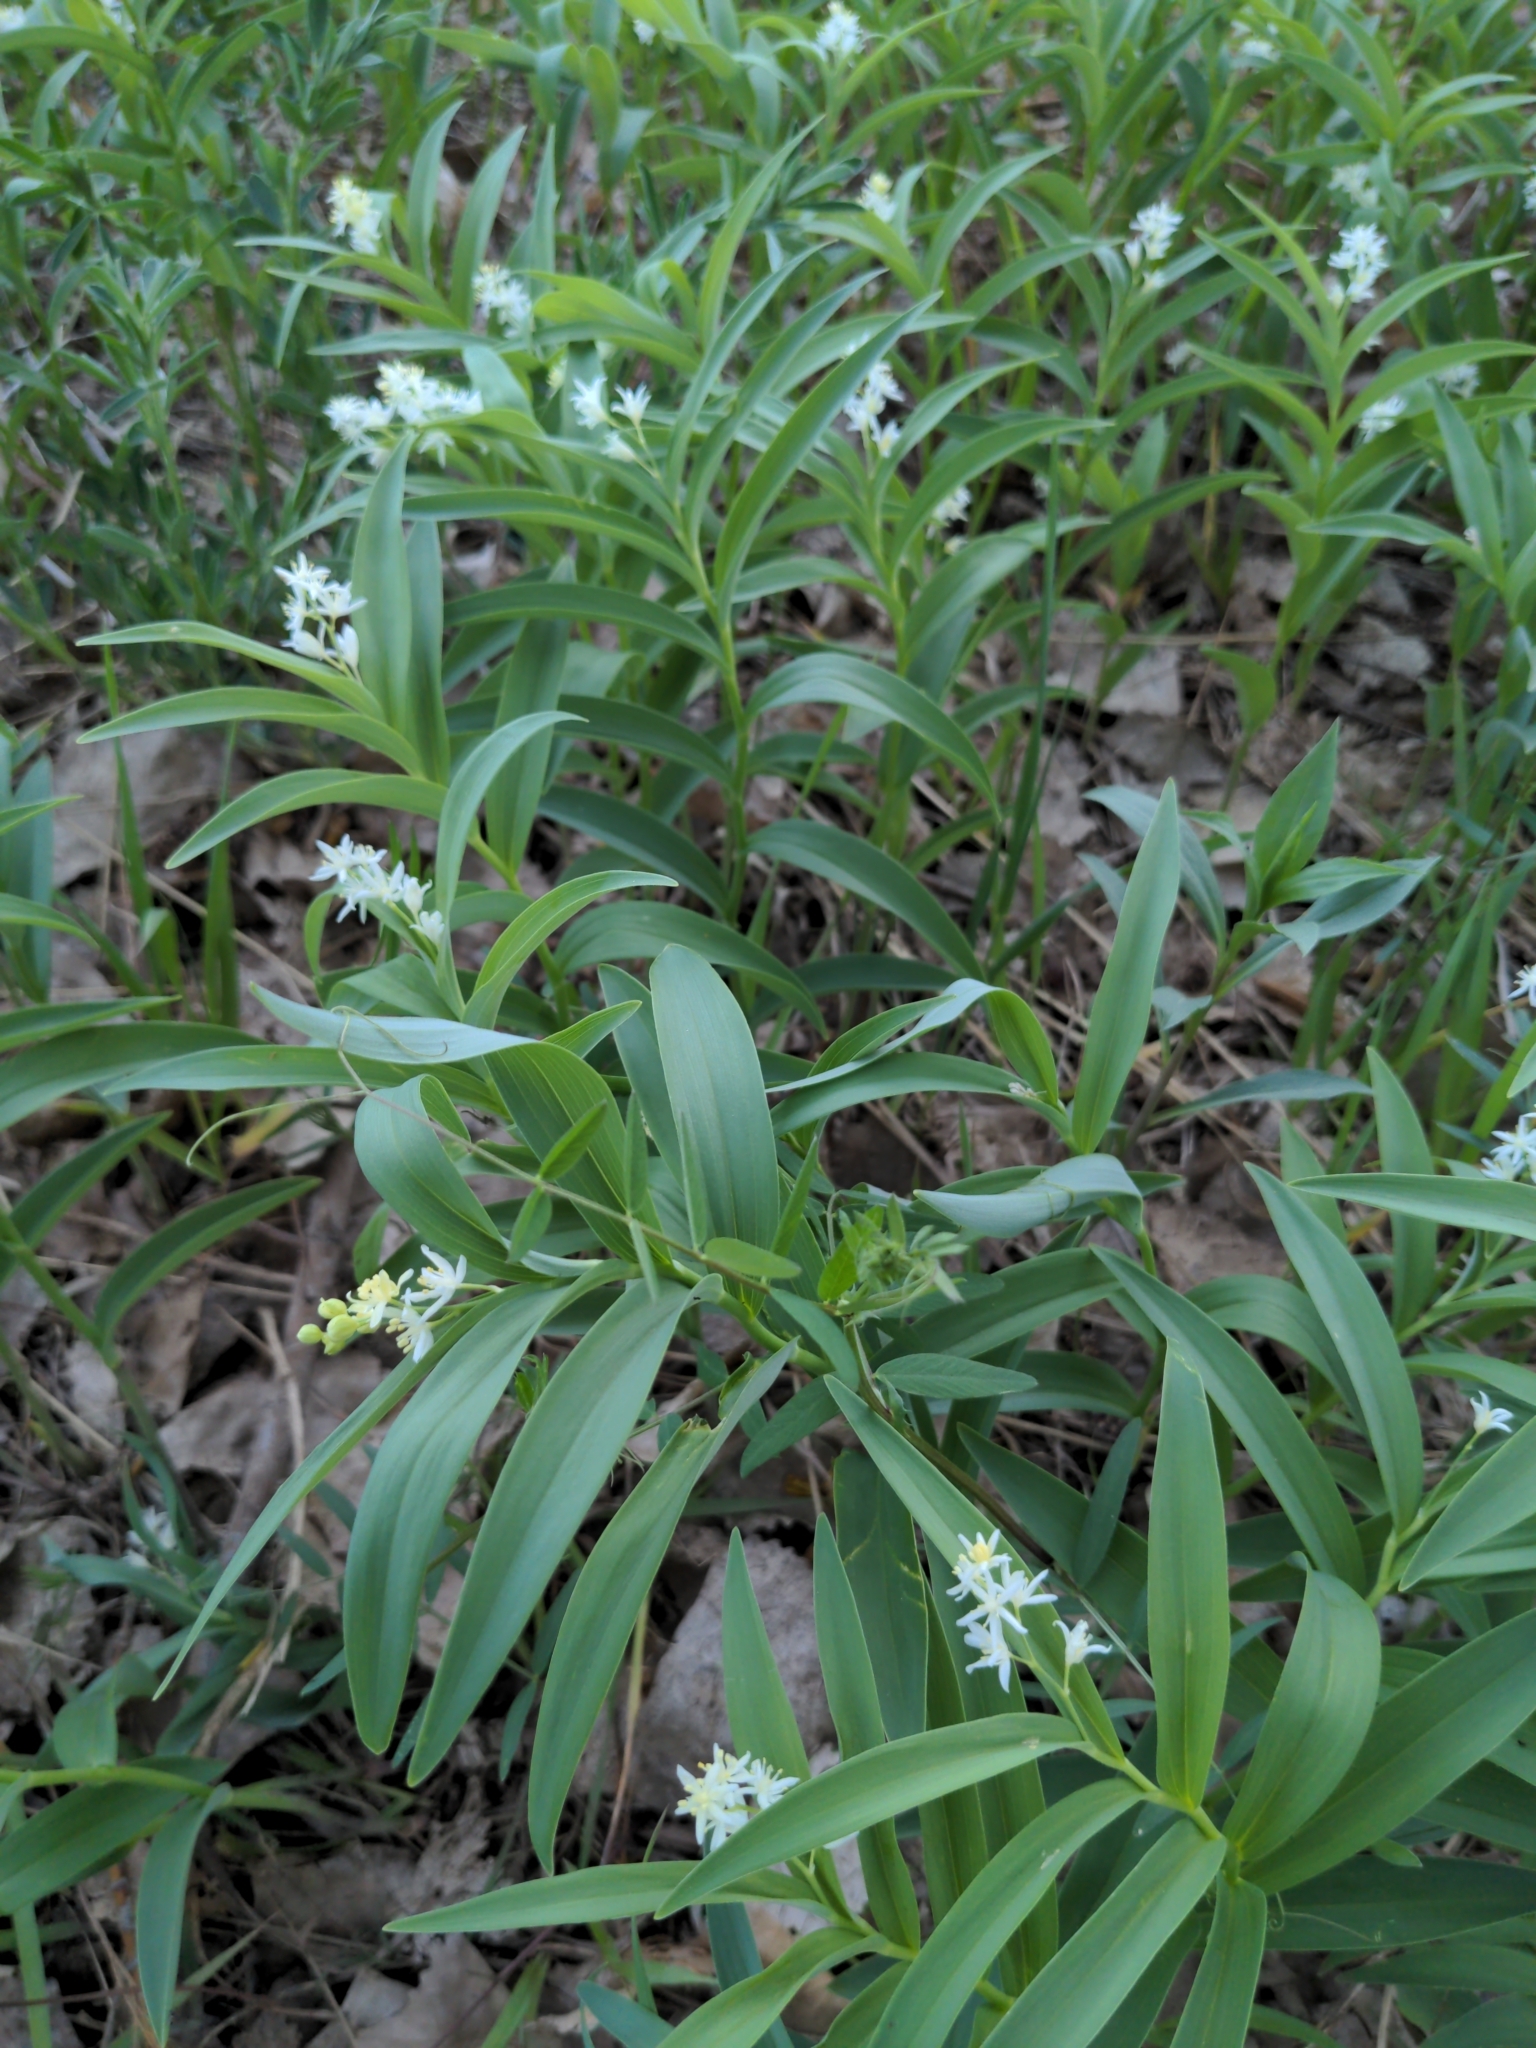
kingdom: Plantae
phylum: Tracheophyta
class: Liliopsida
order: Asparagales
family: Asparagaceae
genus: Maianthemum
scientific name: Maianthemum stellatum
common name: Little false solomon's seal
